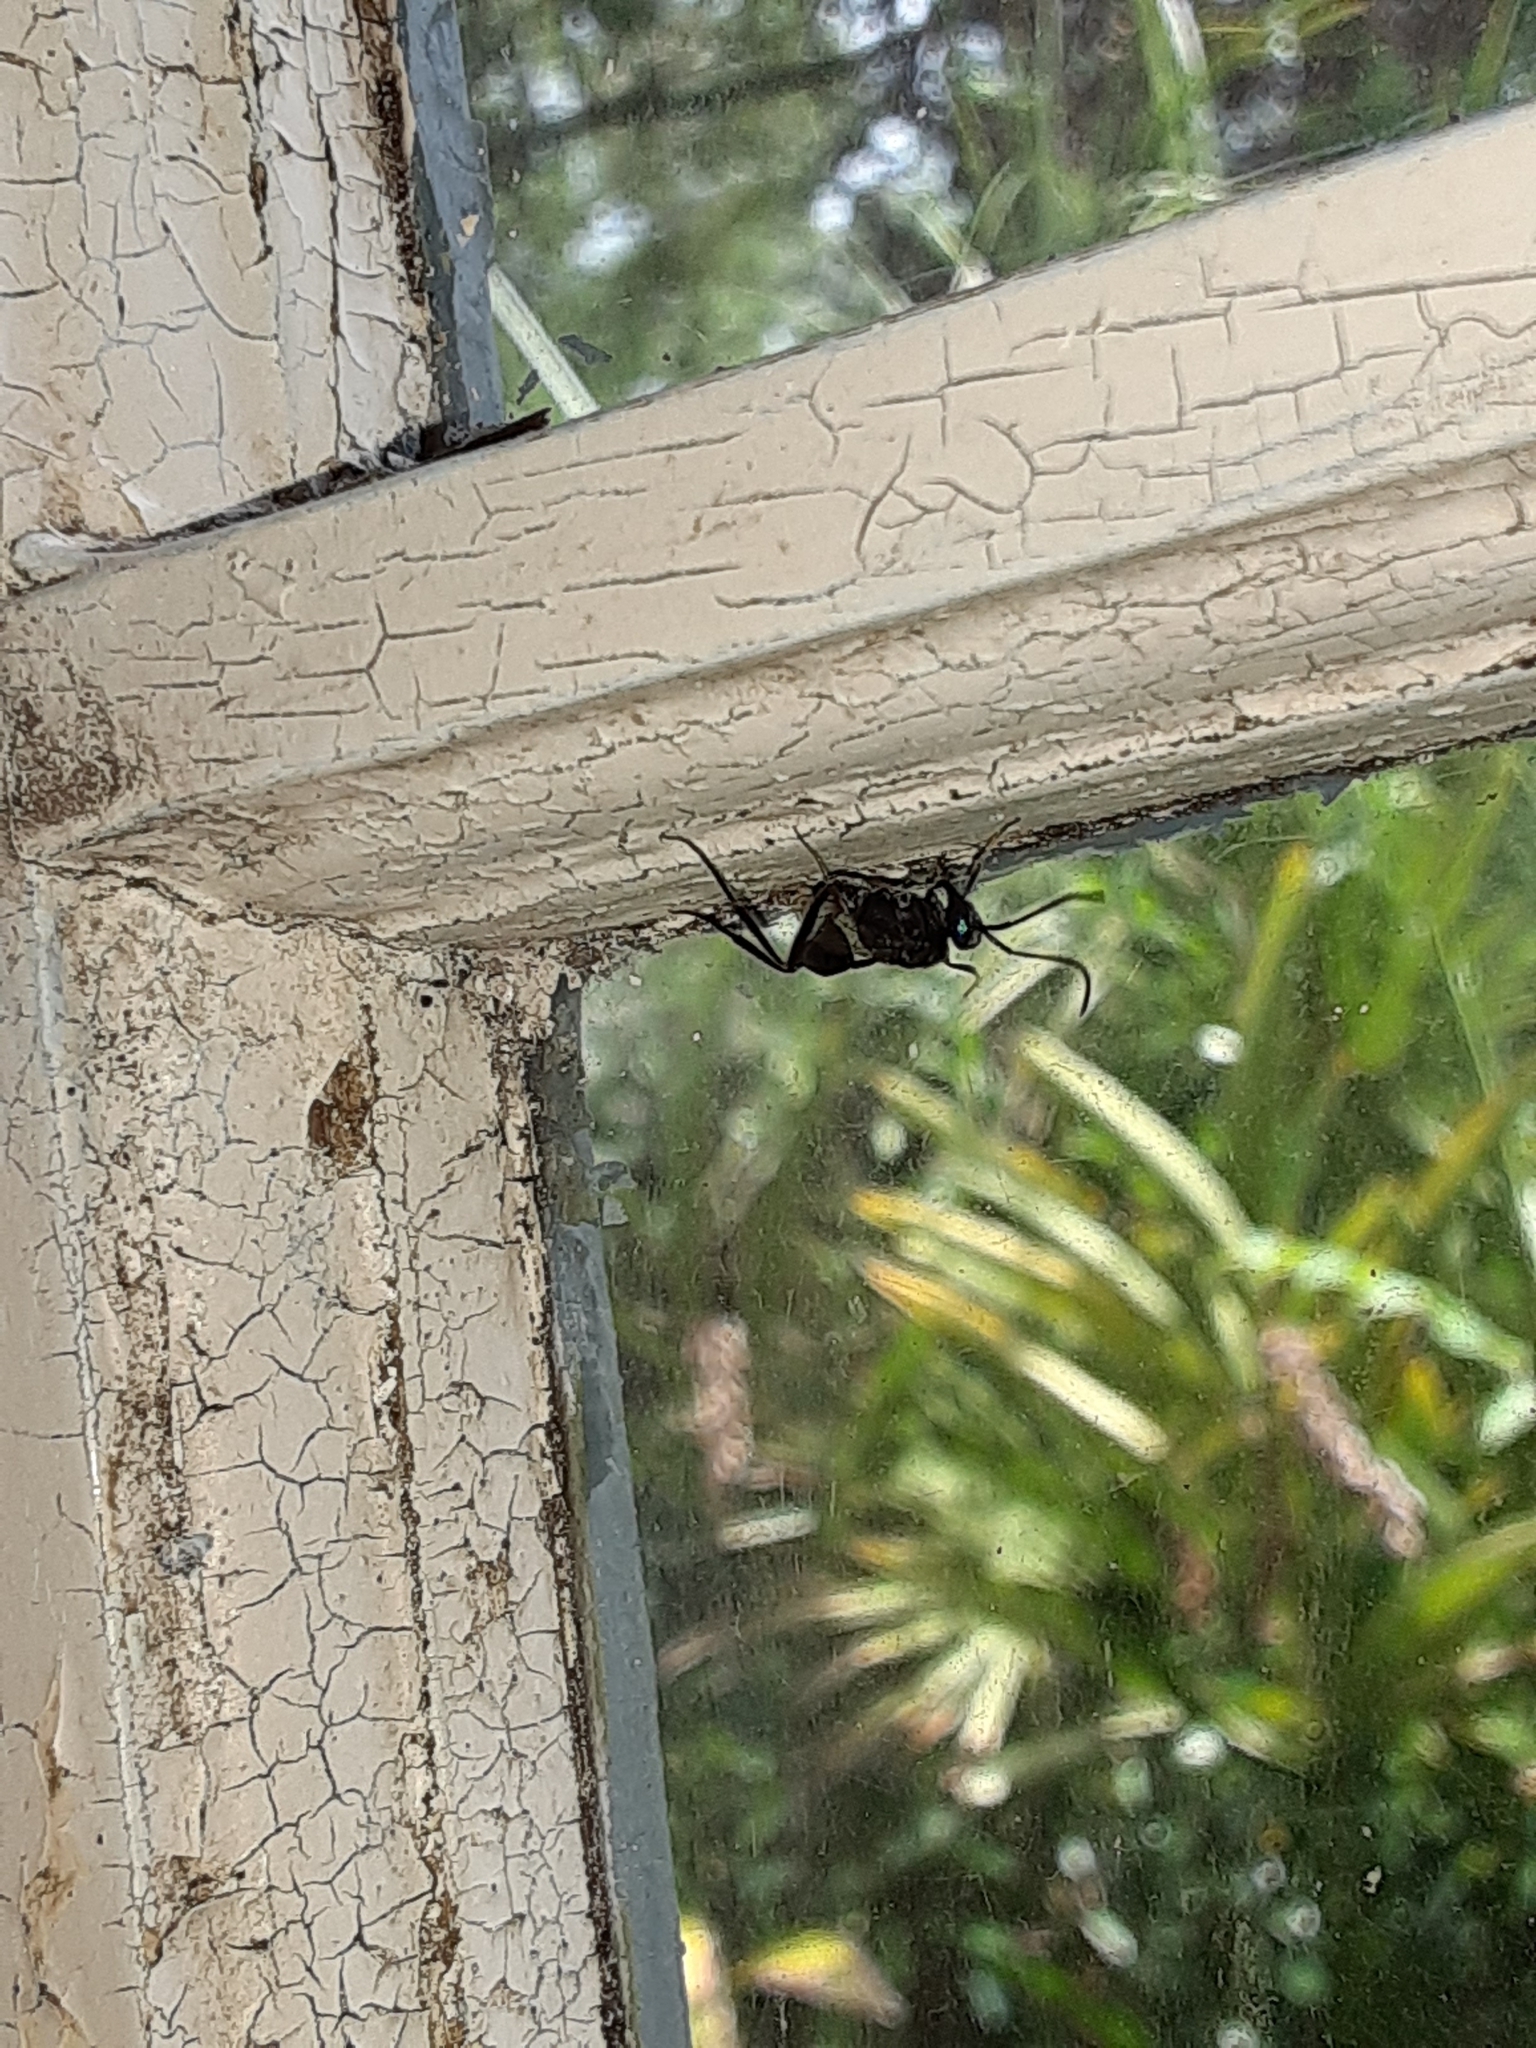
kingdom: Animalia
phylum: Arthropoda
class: Insecta
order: Hymenoptera
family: Evaniidae
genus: Evania
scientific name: Evania appendigaster
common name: Ensign wasp
